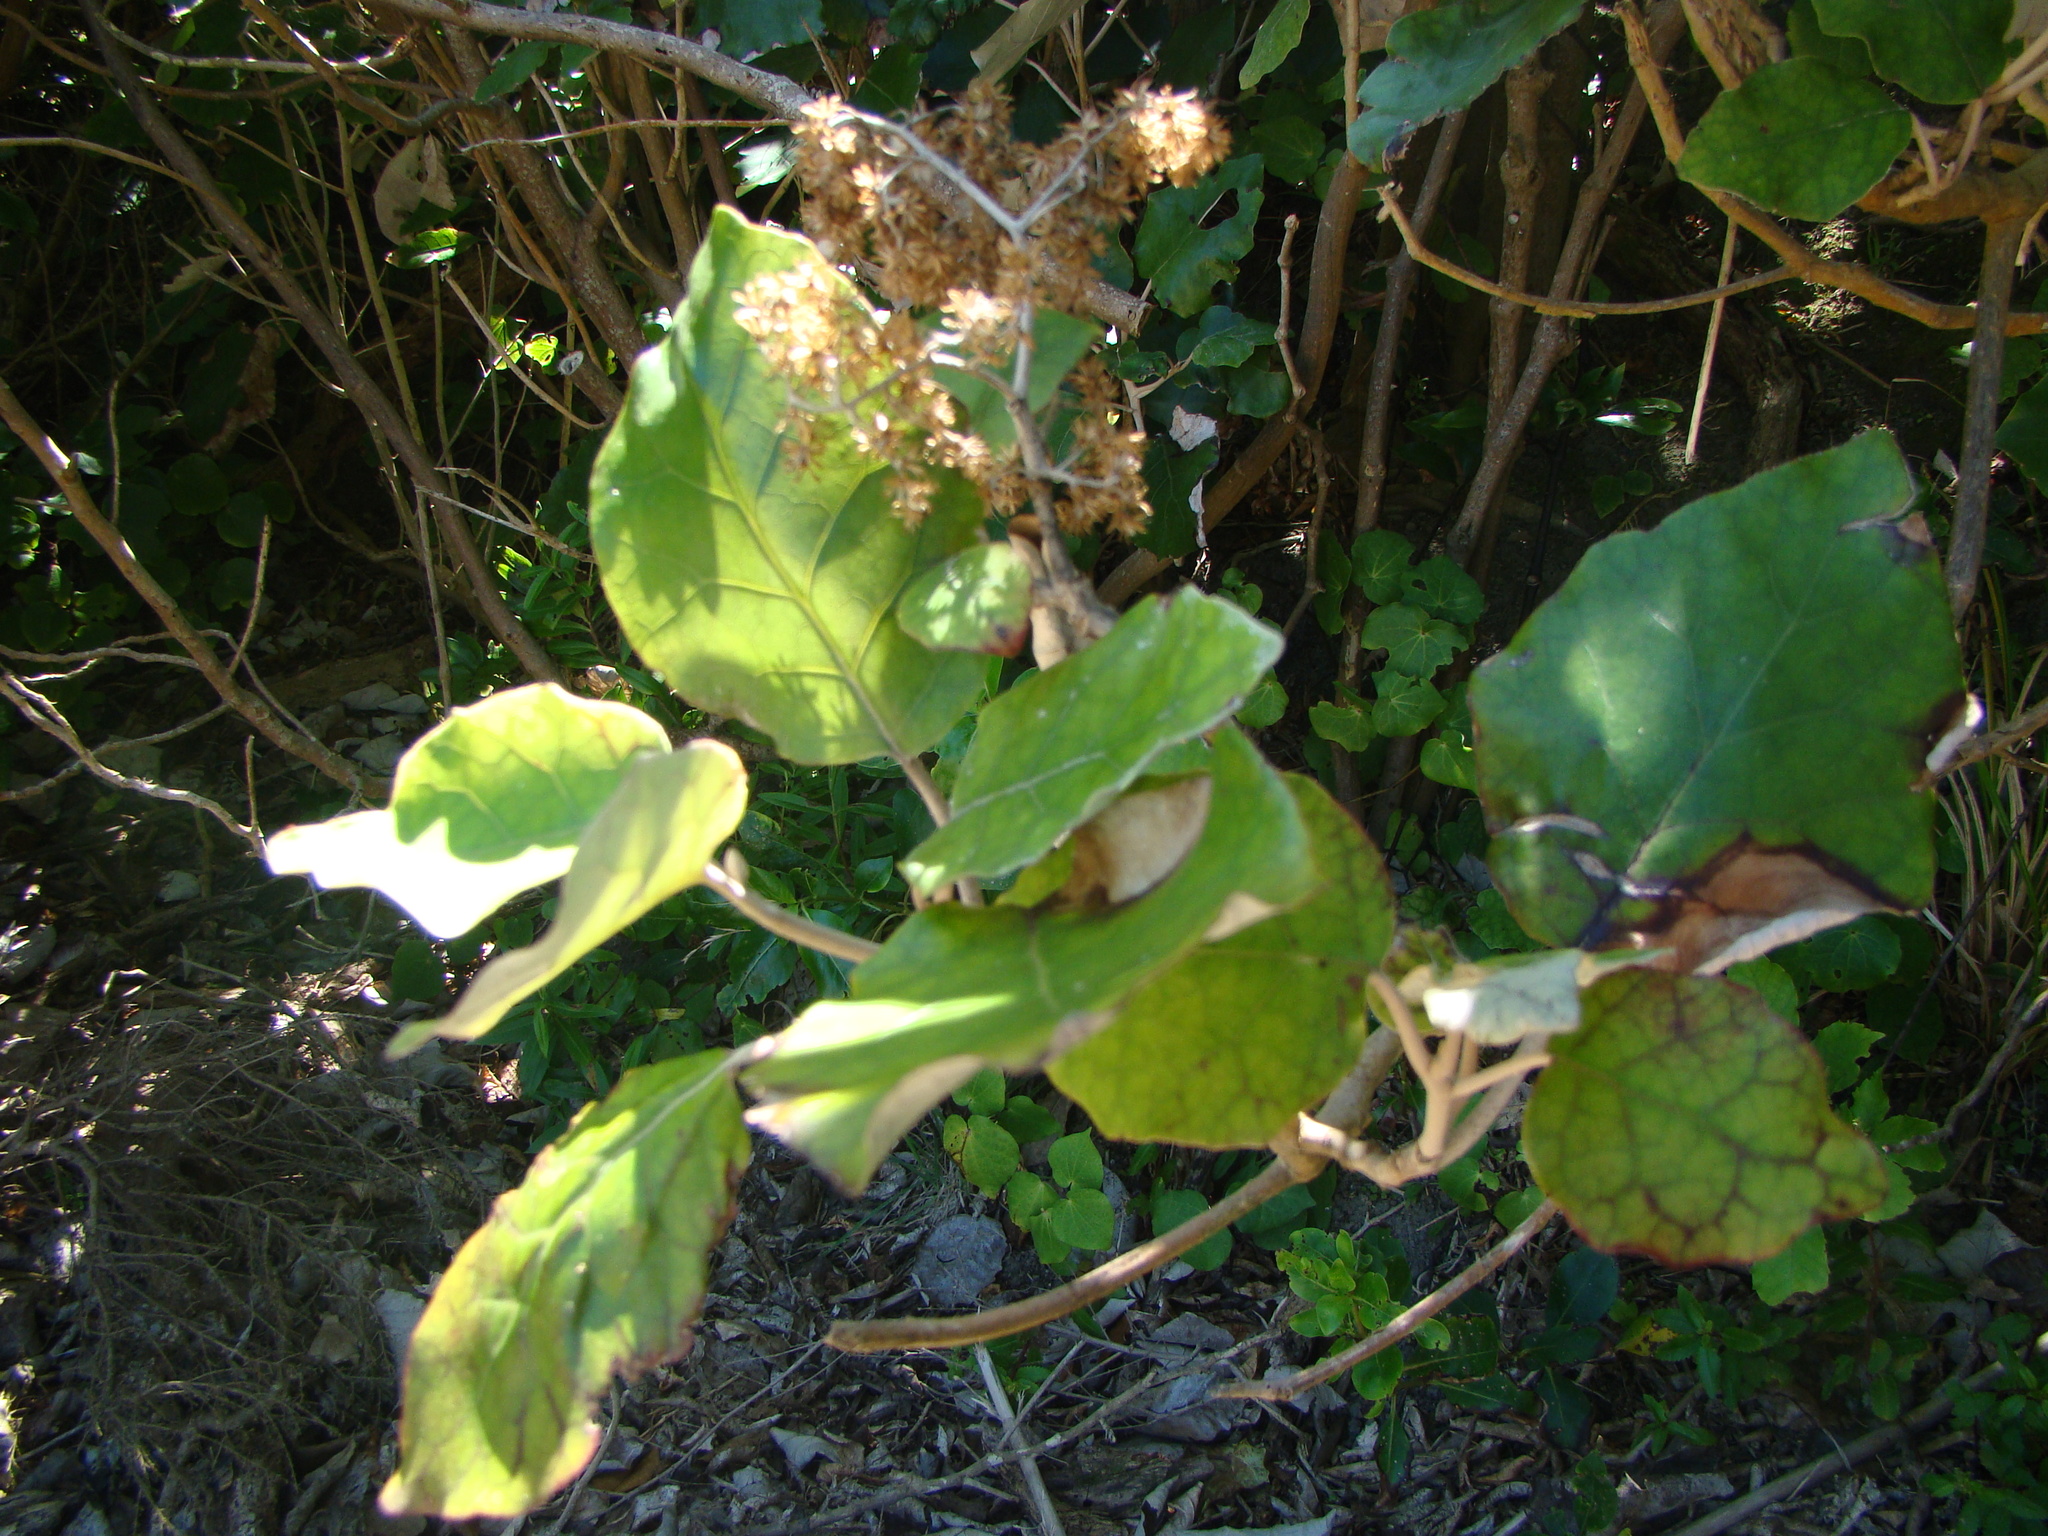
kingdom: Plantae
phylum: Tracheophyta
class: Magnoliopsida
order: Asterales
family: Asteraceae
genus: Brachyglottis
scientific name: Brachyglottis repanda
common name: Hedge ragwort
